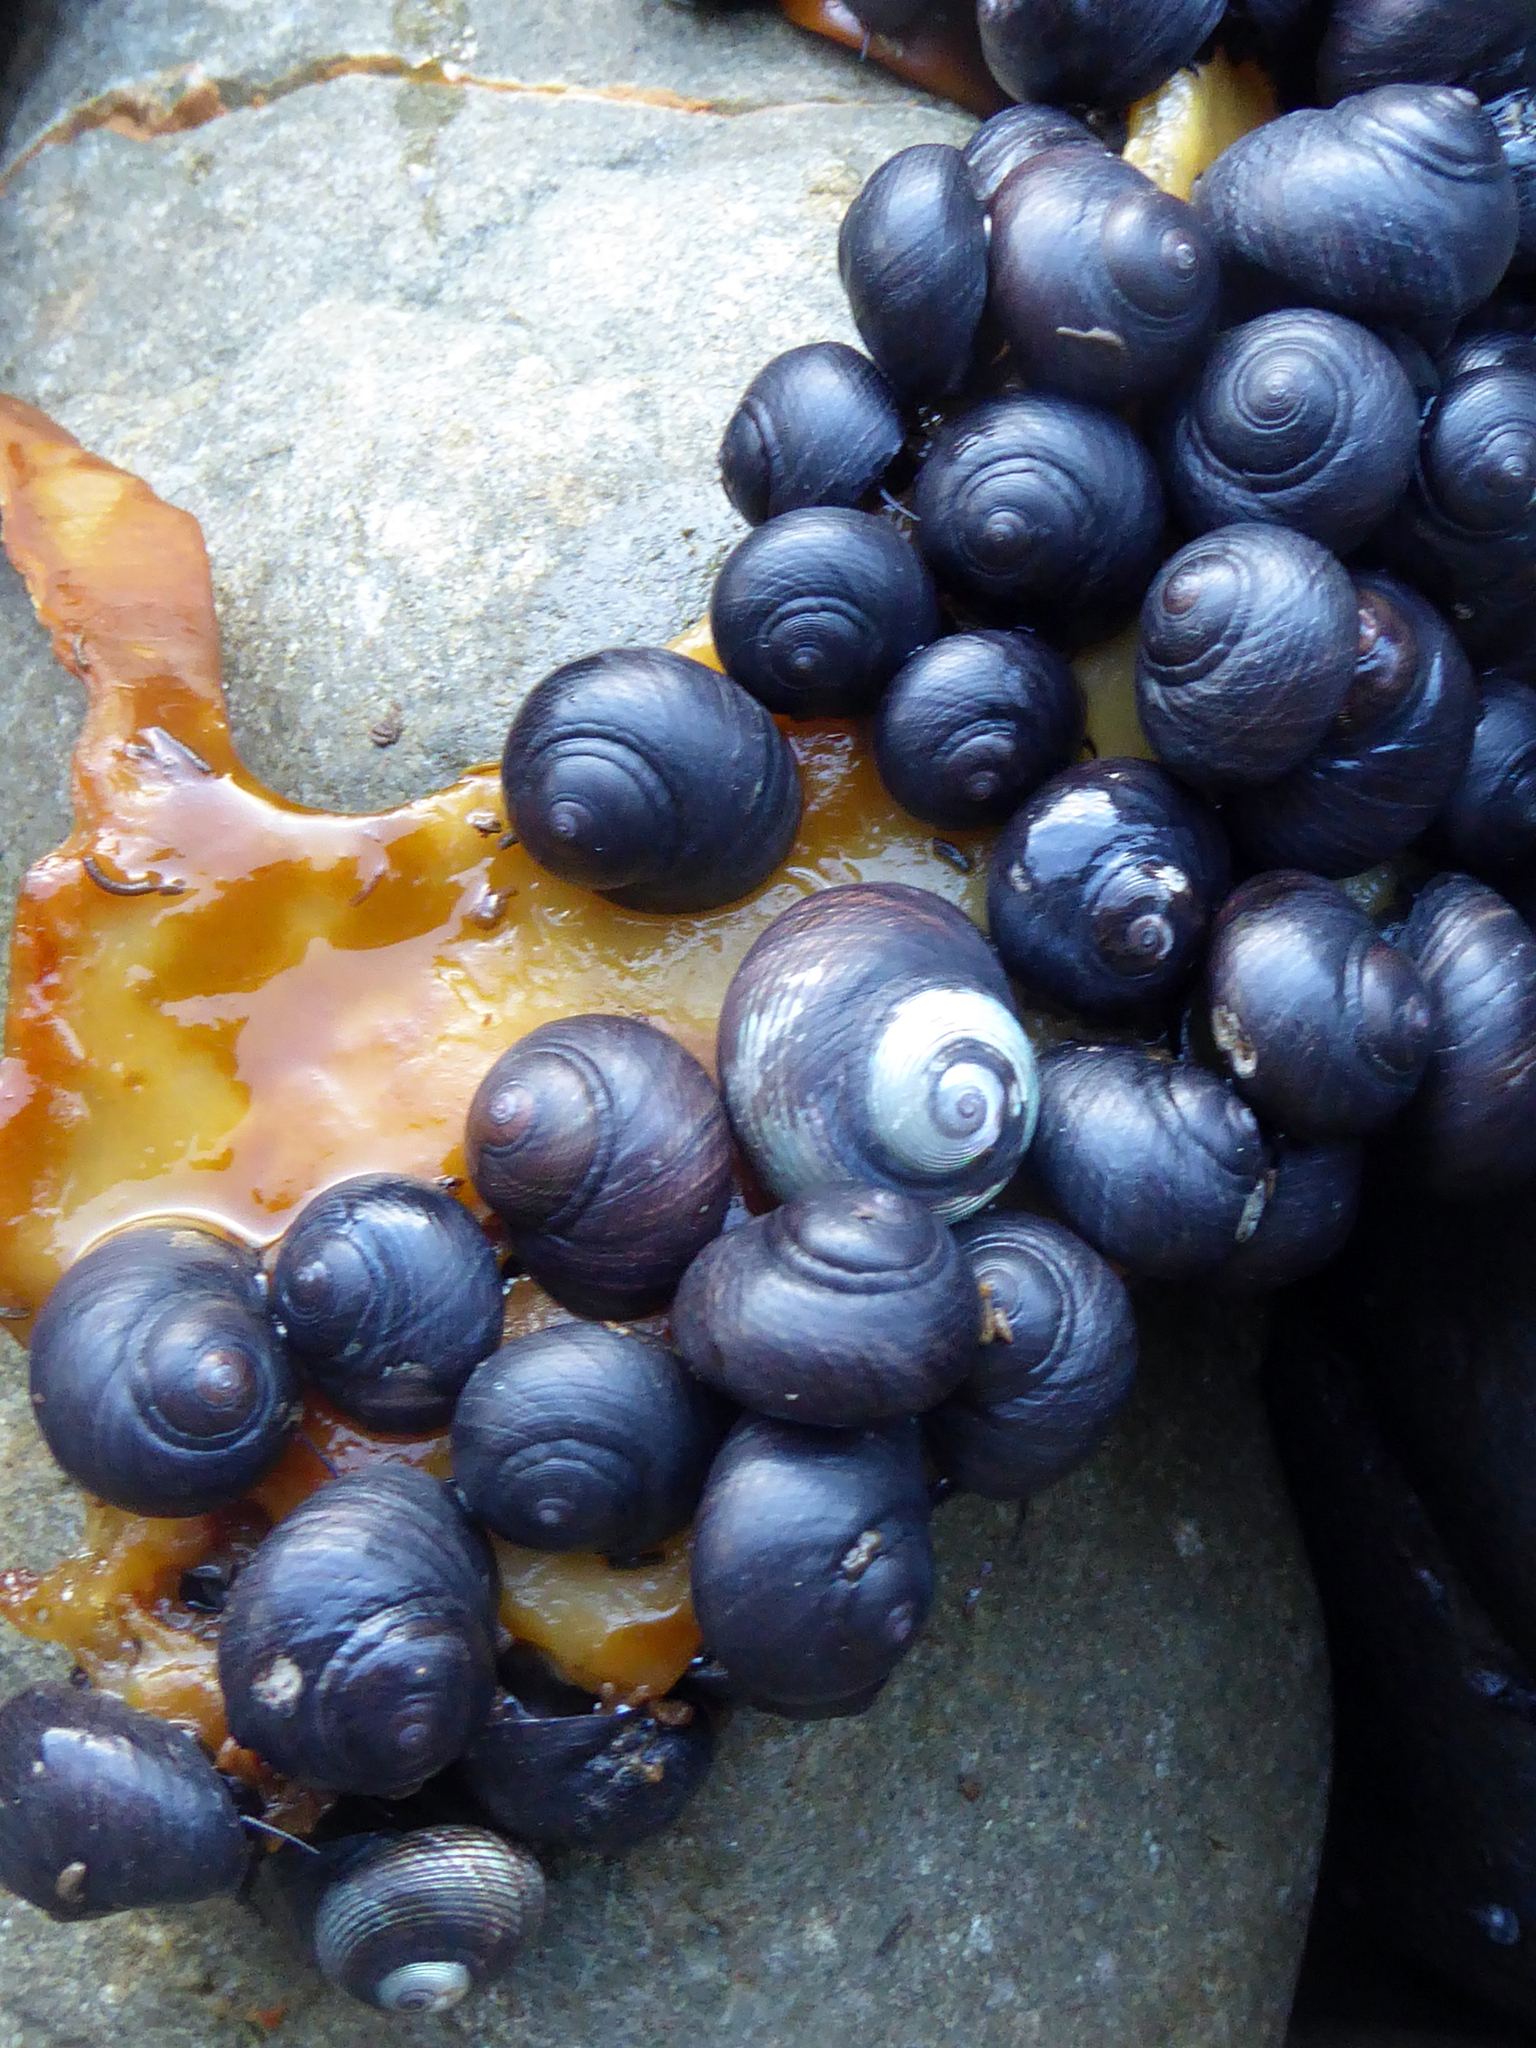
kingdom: Animalia
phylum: Mollusca
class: Gastropoda
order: Trochida
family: Trochidae
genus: Diloma
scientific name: Diloma nigerrimum
